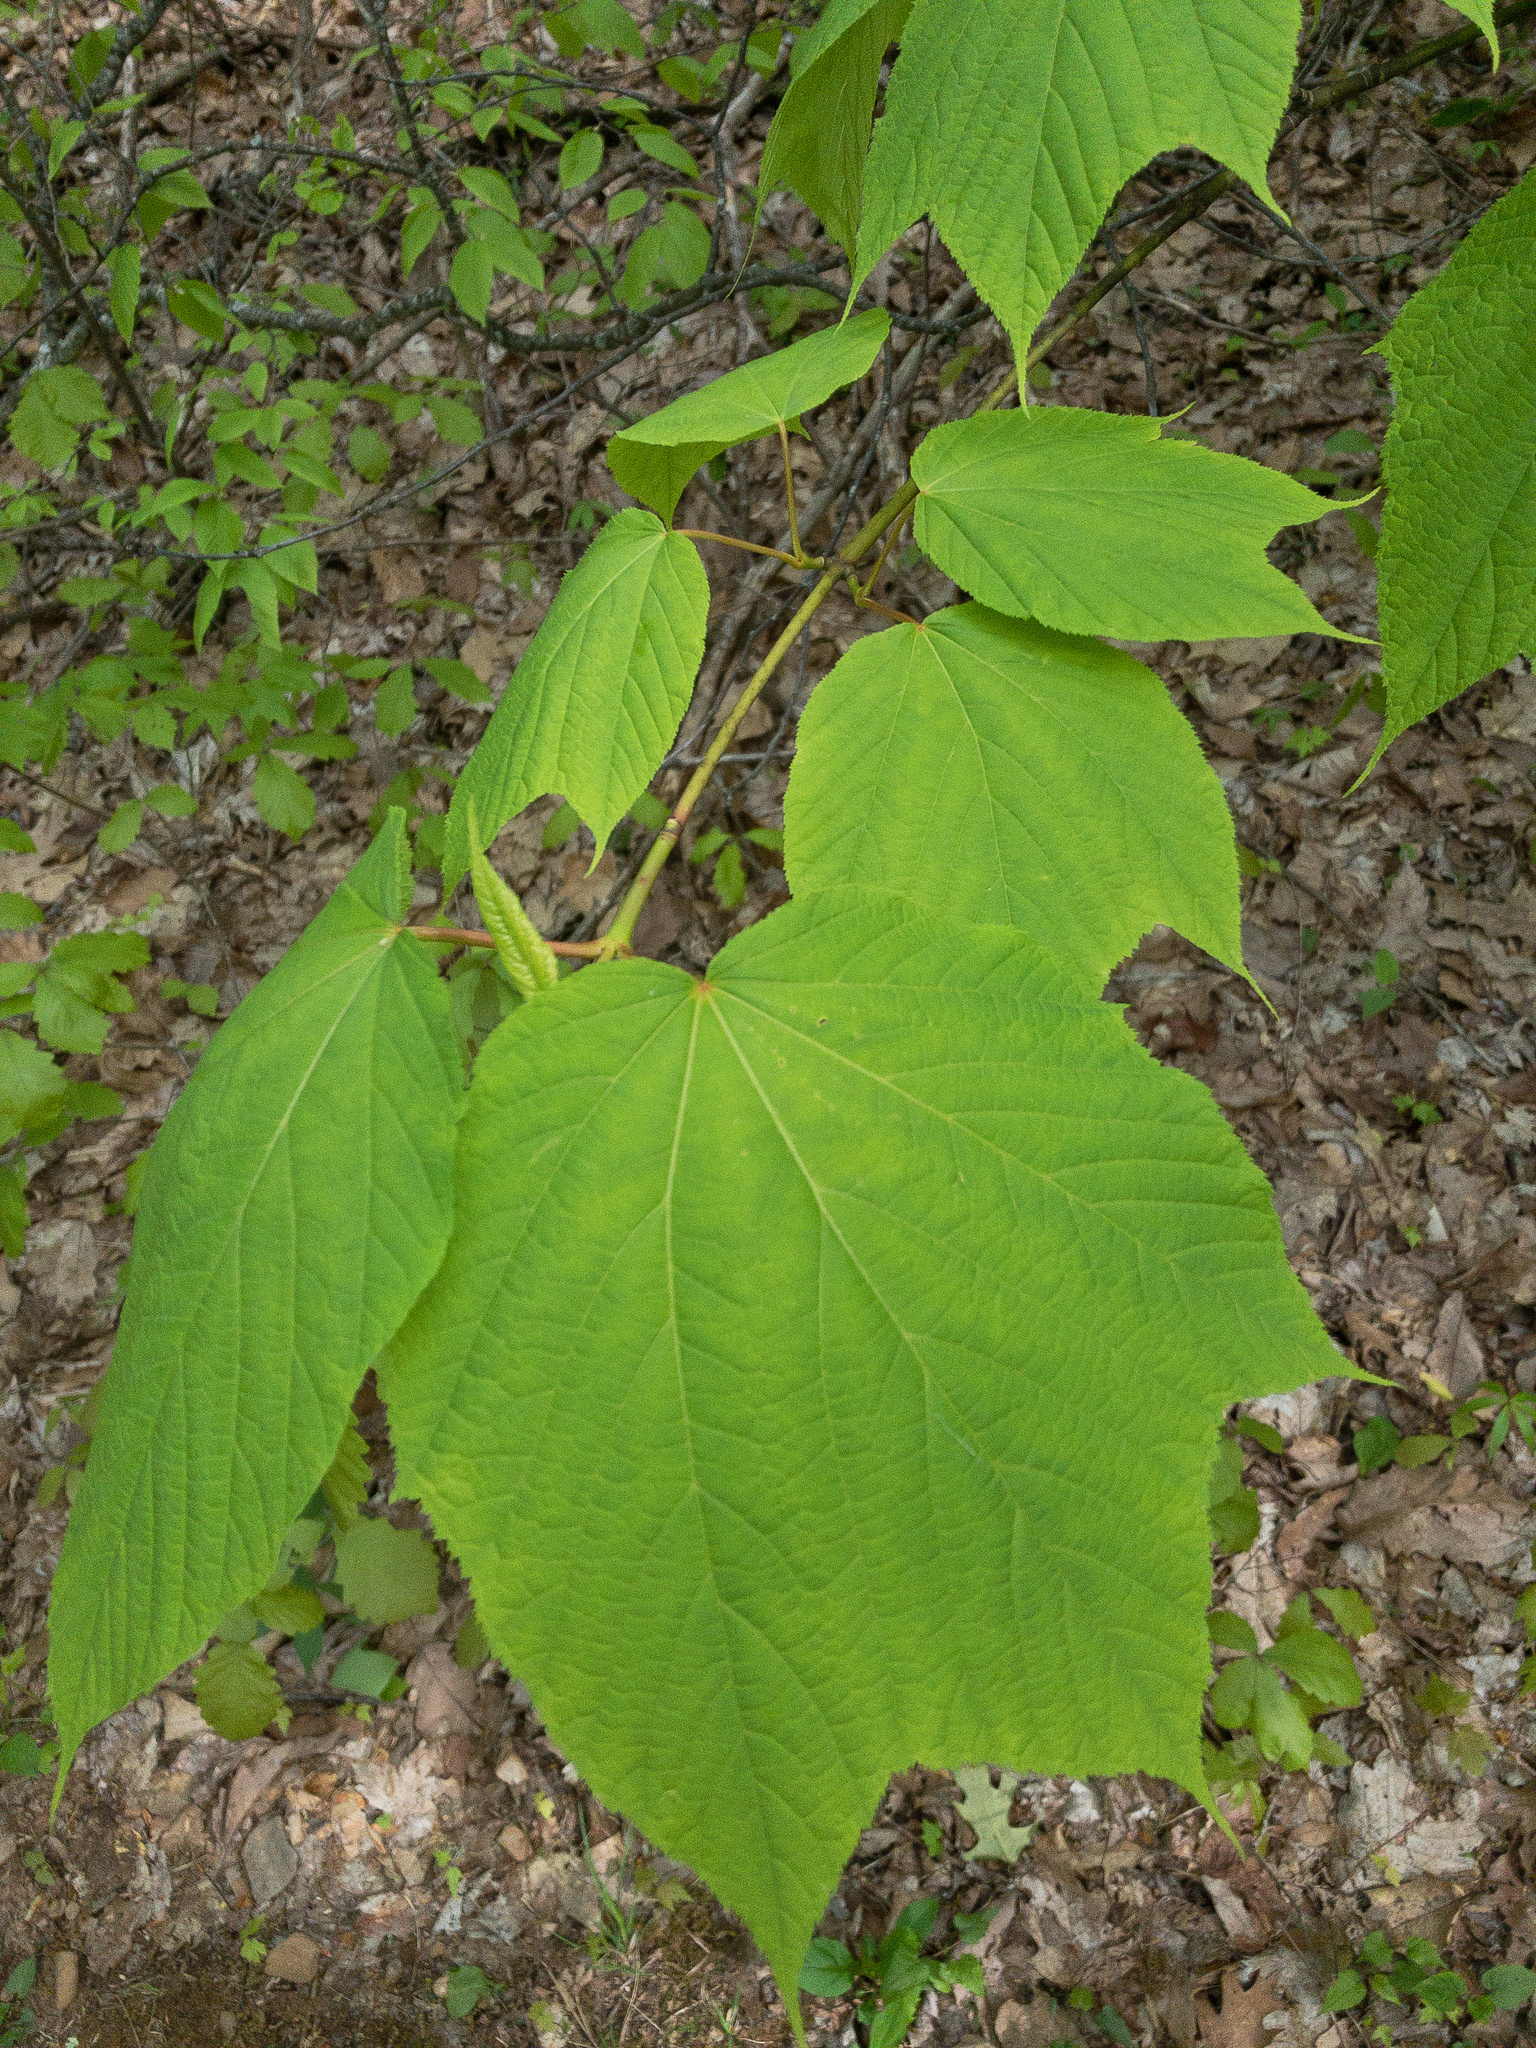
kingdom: Plantae
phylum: Tracheophyta
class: Magnoliopsida
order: Sapindales
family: Sapindaceae
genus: Acer
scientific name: Acer pensylvanicum
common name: Moosewood
